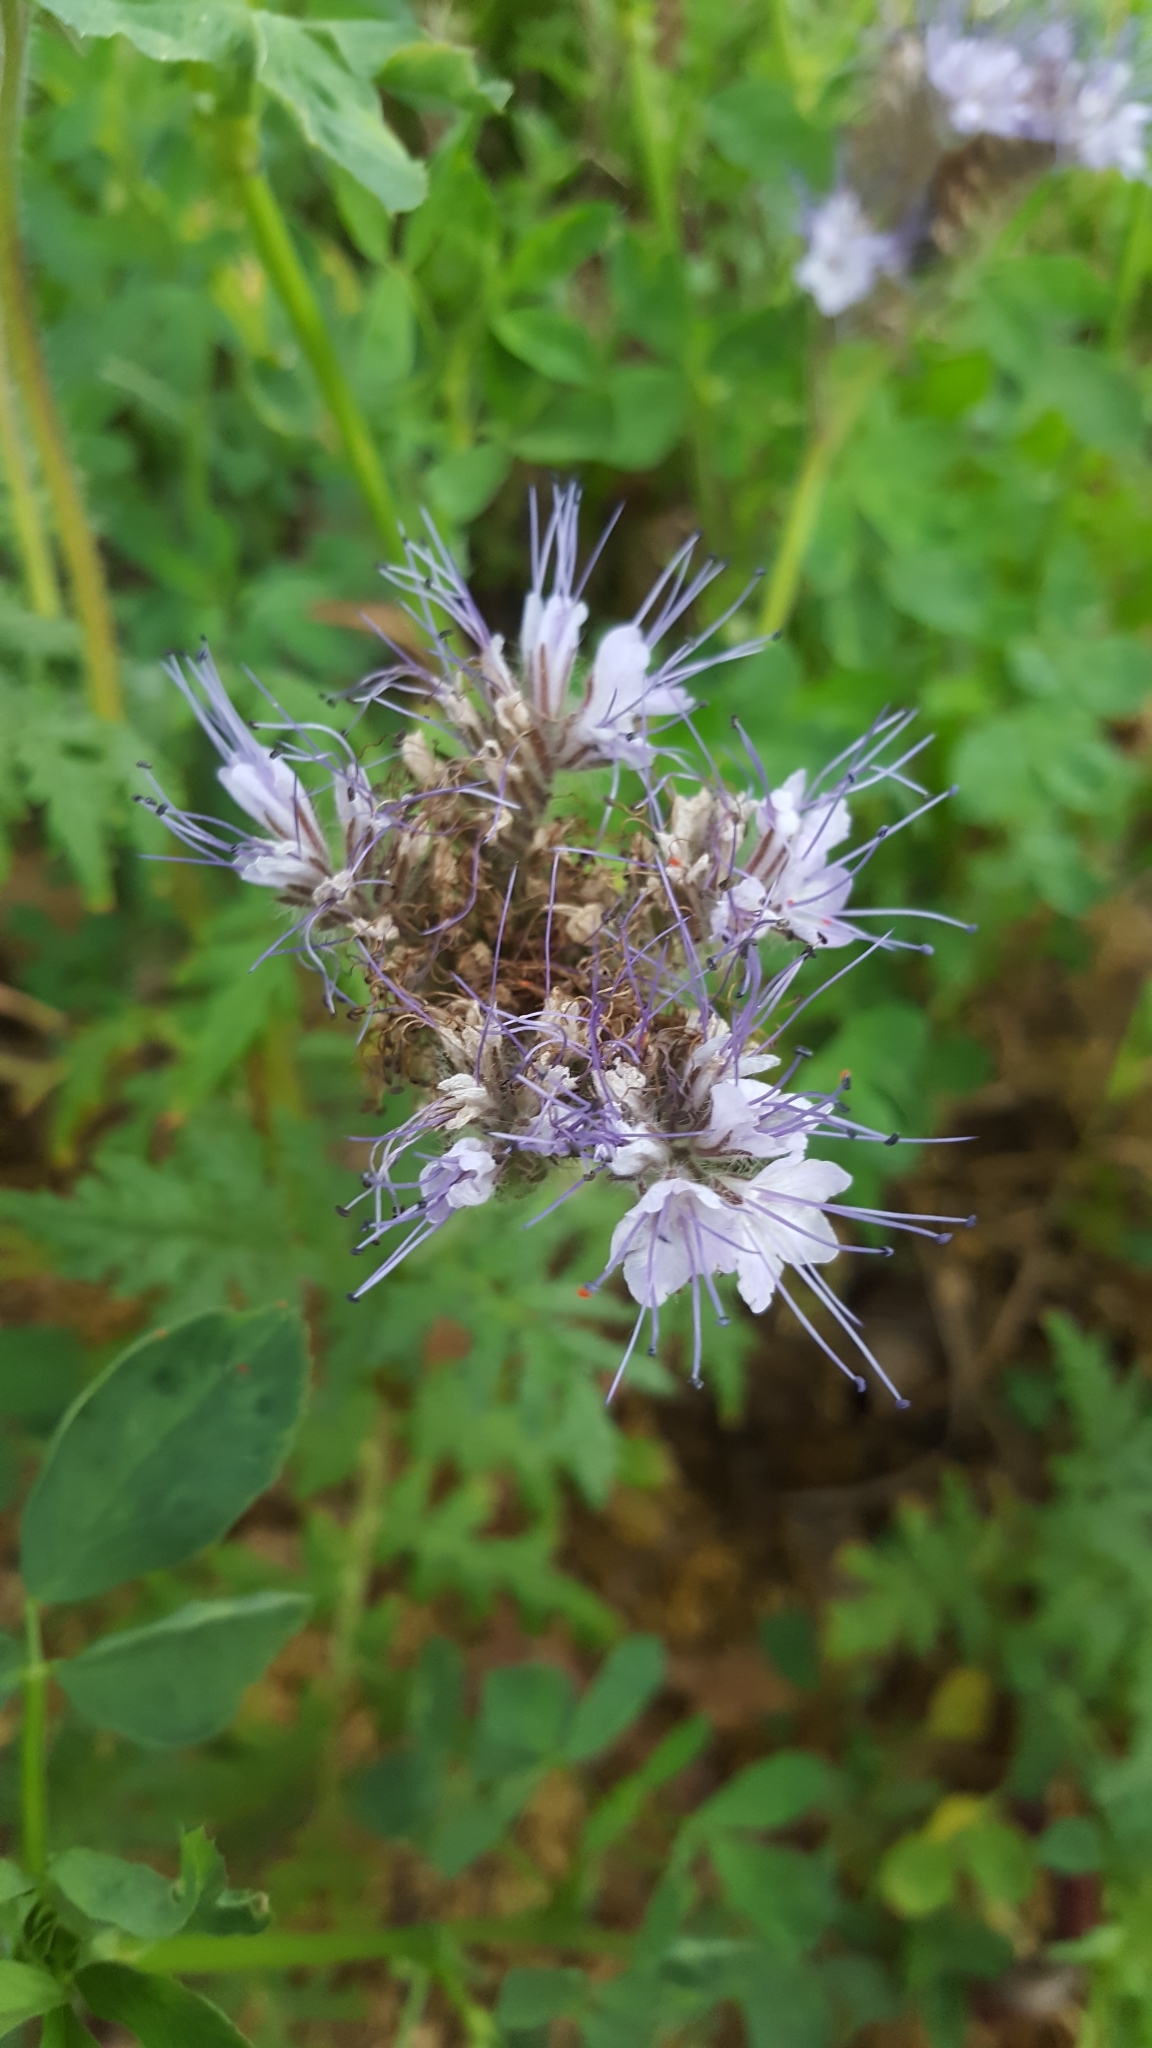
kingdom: Plantae
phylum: Tracheophyta
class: Magnoliopsida
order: Boraginales
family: Hydrophyllaceae
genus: Phacelia
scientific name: Phacelia tanacetifolia
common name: Phacelia
